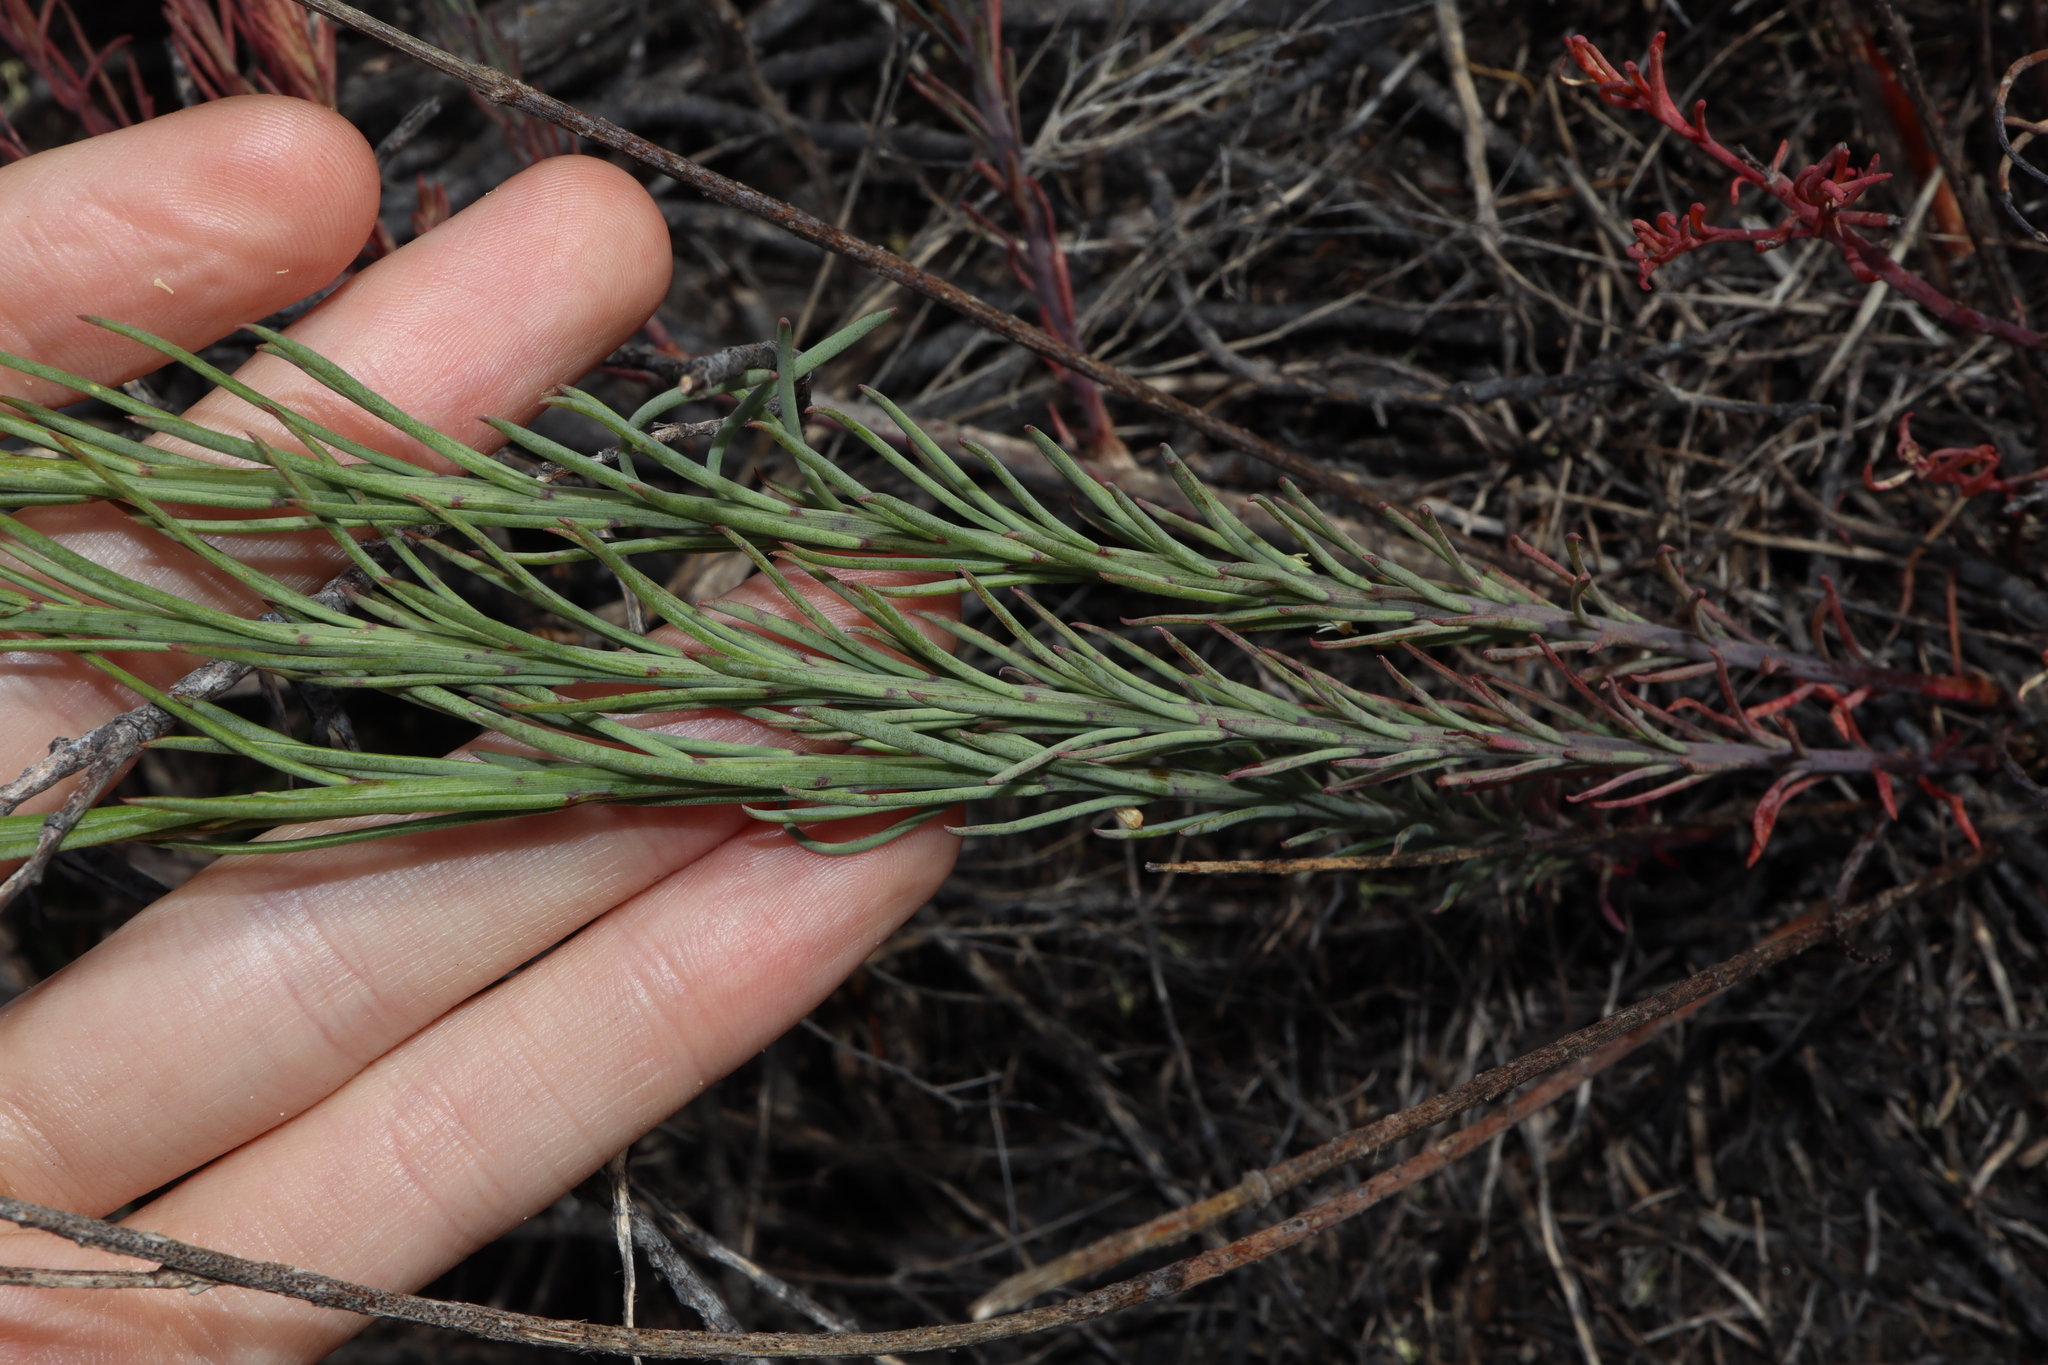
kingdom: Plantae
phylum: Tracheophyta
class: Magnoliopsida
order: Celastrales
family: Celastraceae
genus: Stackhousia
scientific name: Stackhousia monogyna
